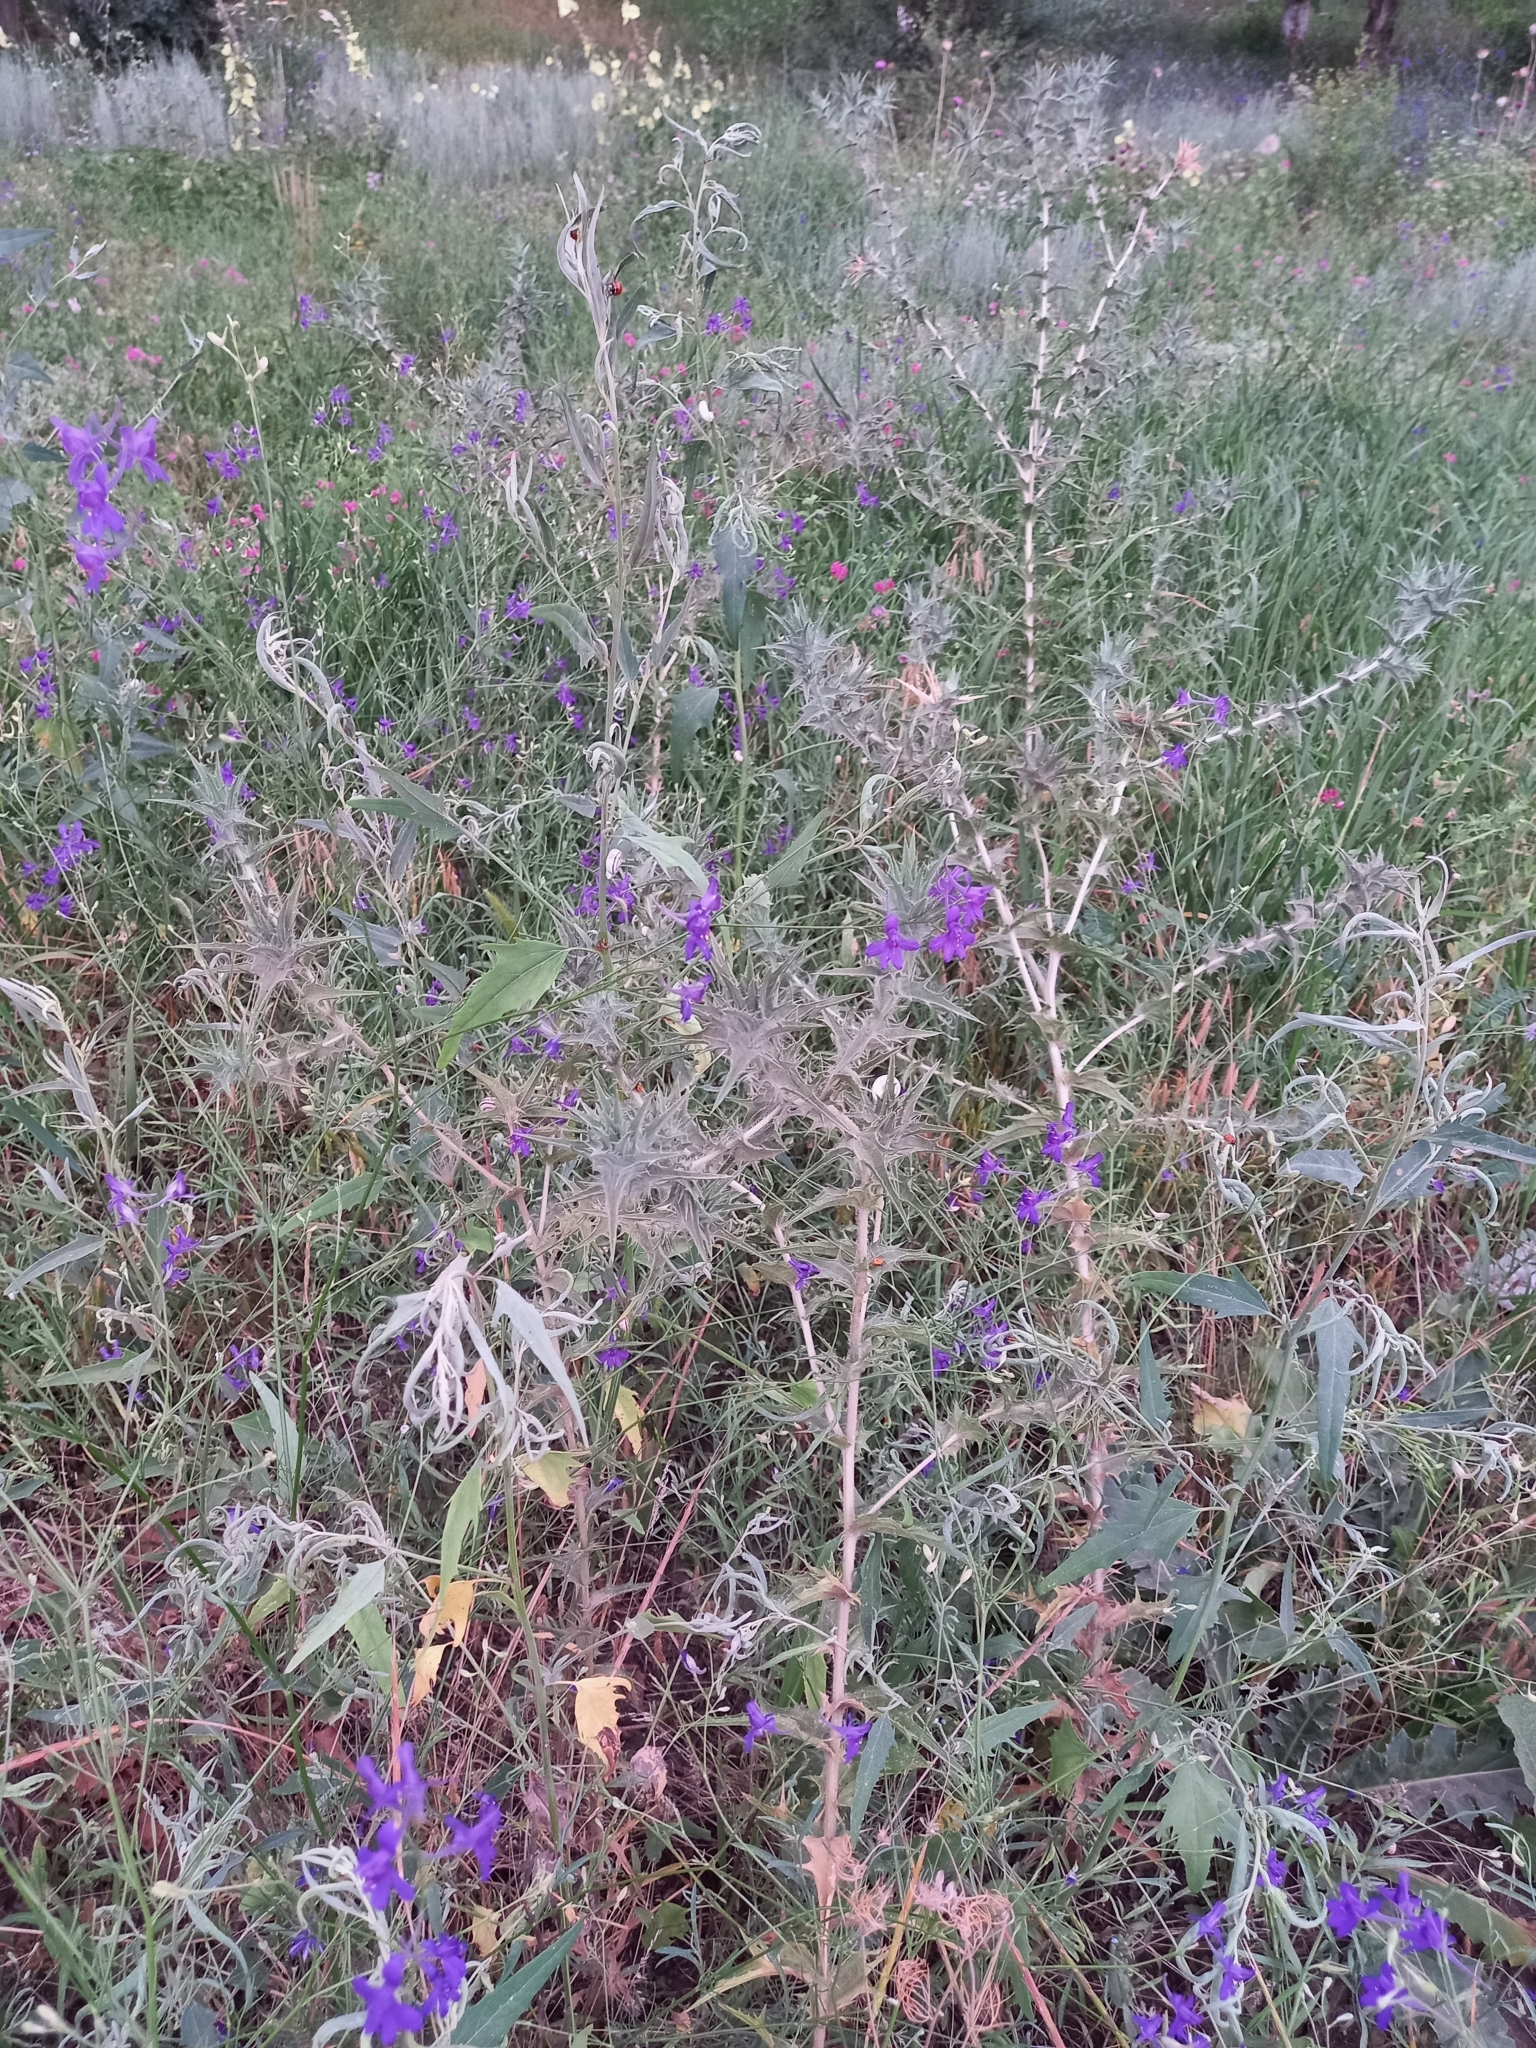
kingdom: Plantae
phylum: Tracheophyta
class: Magnoliopsida
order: Asterales
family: Asteraceae
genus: Carthamus
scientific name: Carthamus lanatus
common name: Downy safflower
